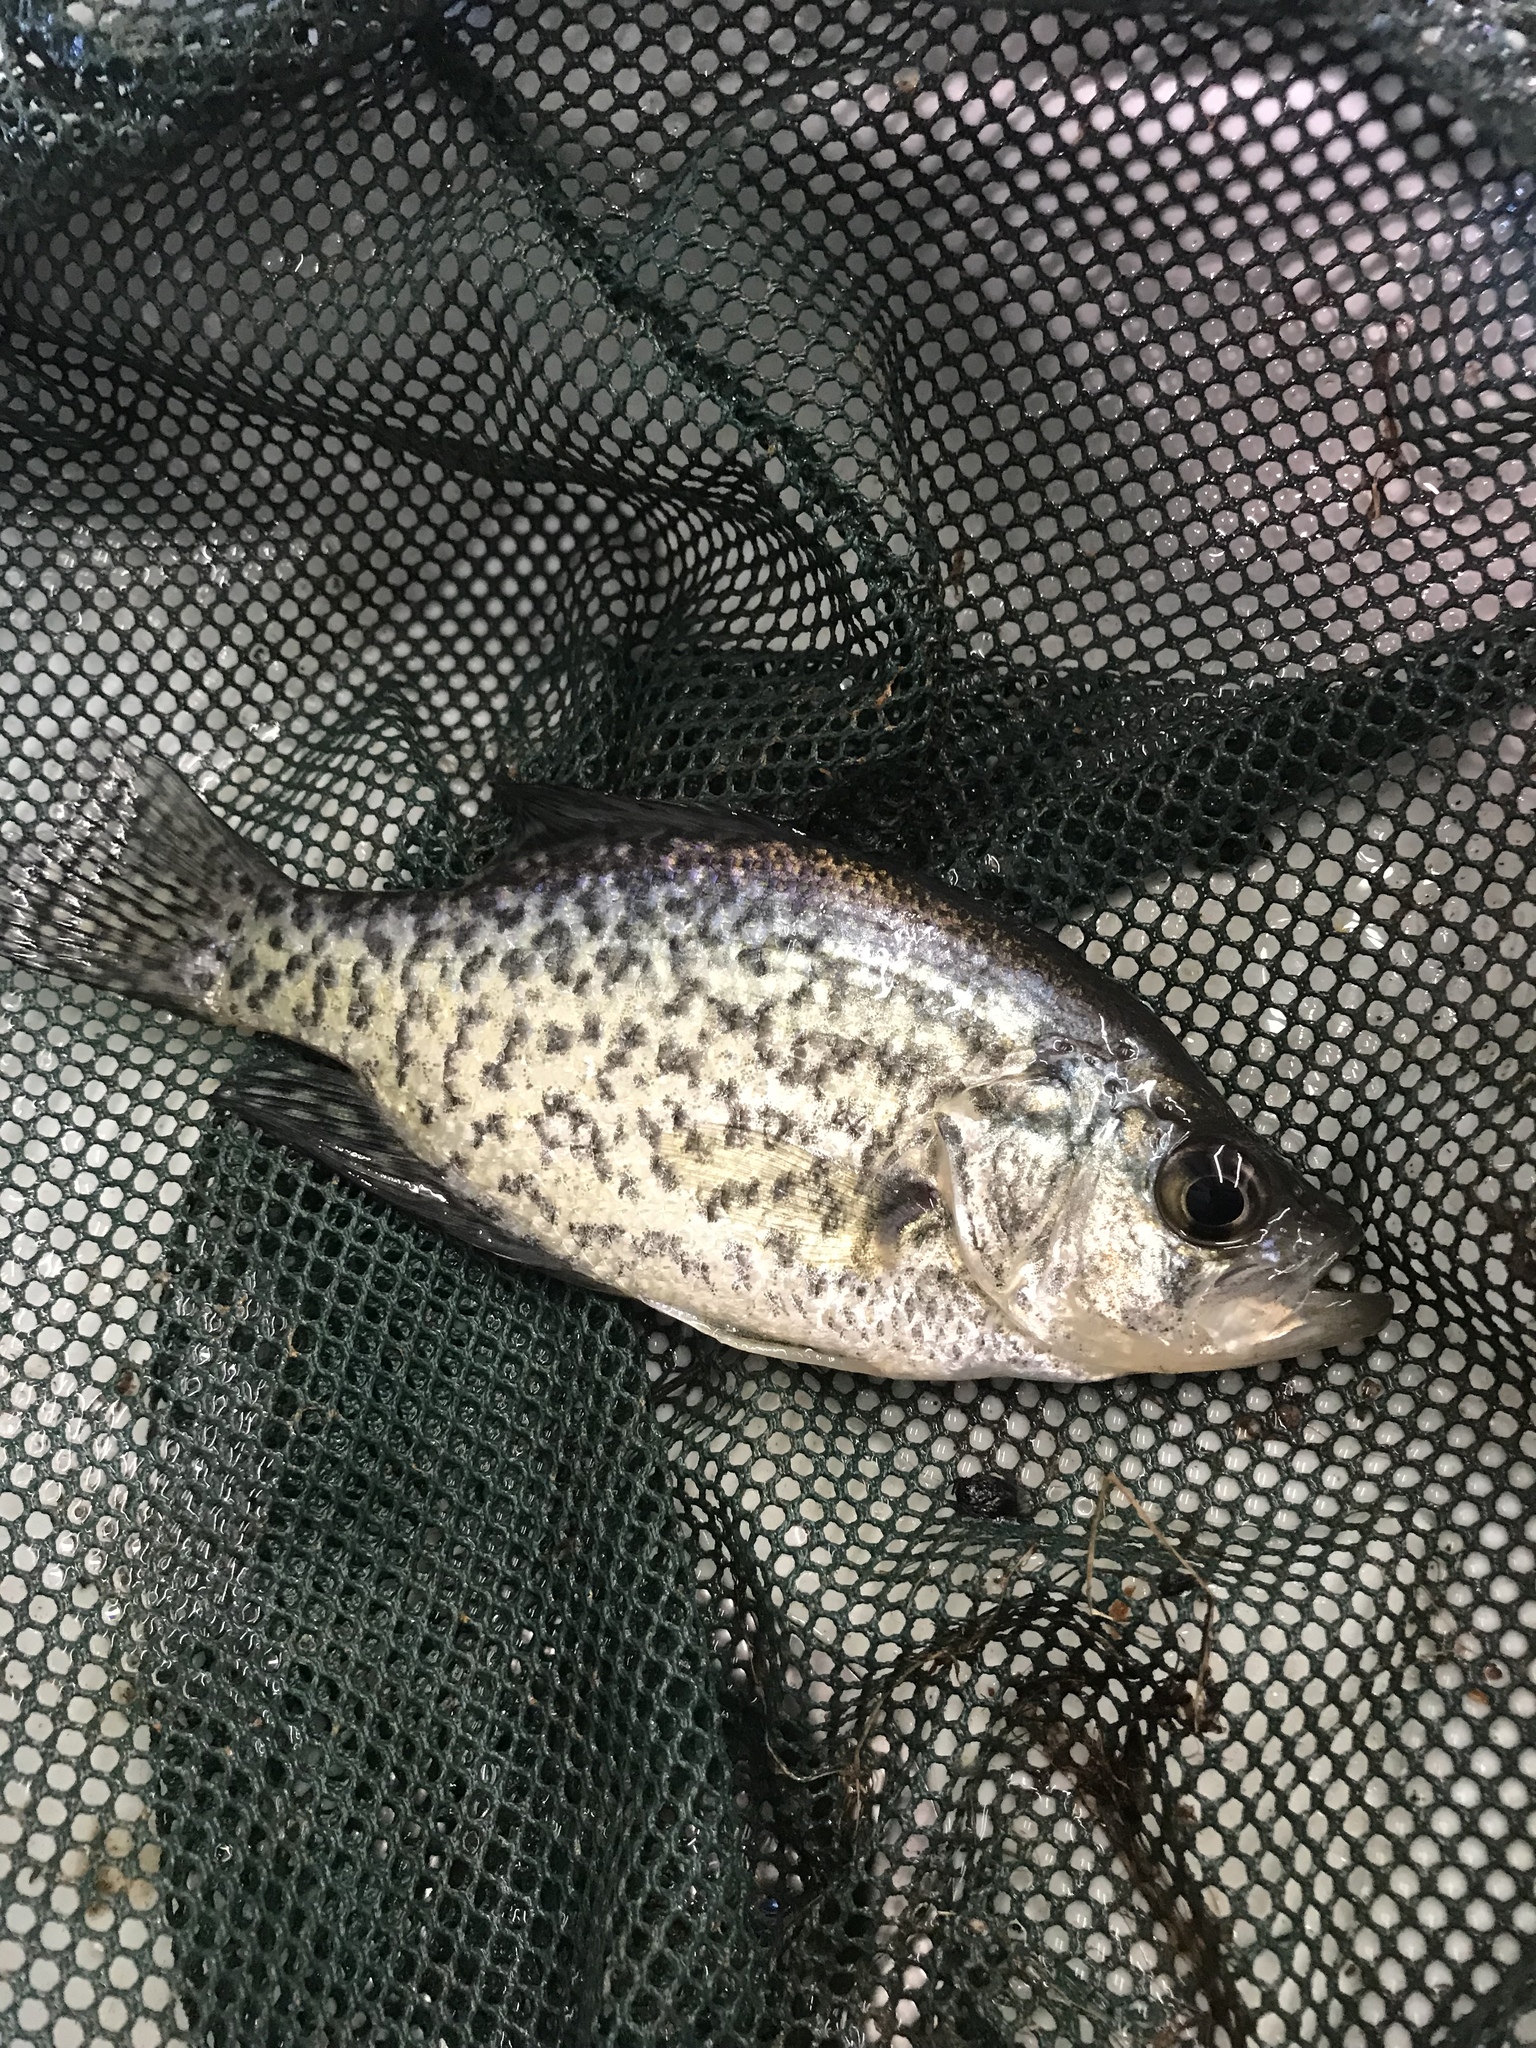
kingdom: Animalia
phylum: Chordata
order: Perciformes
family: Centrarchidae
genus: Pomoxis
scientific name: Pomoxis nigromaculatus
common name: Black crappie
